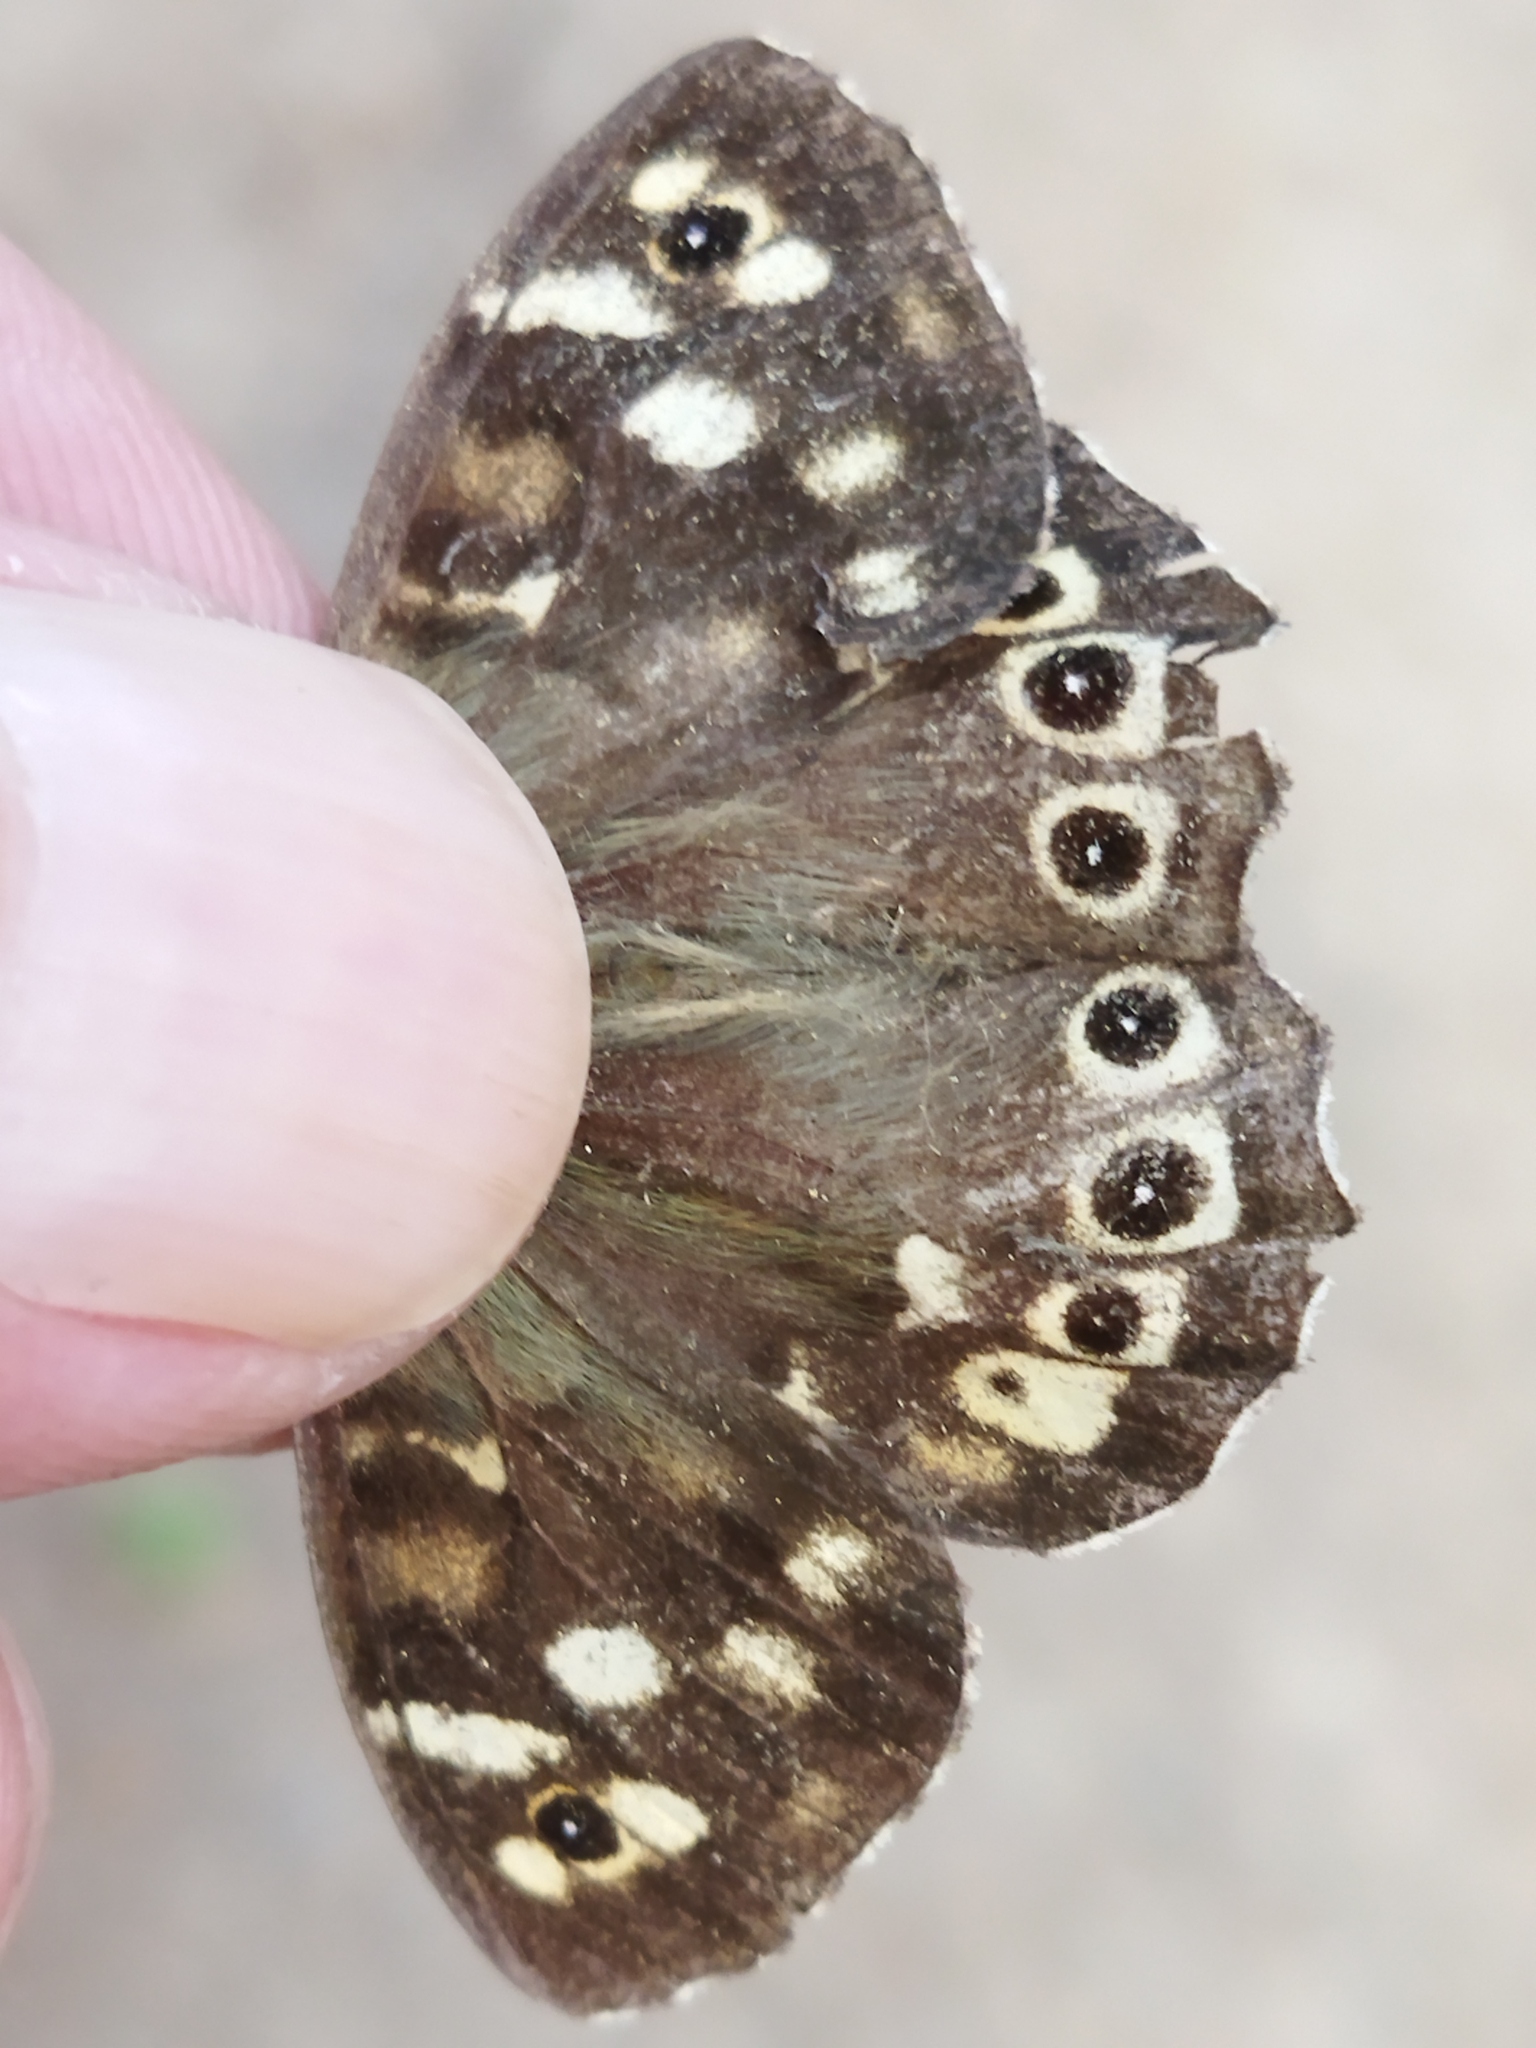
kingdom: Animalia
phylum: Arthropoda
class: Insecta
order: Lepidoptera
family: Nymphalidae
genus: Pararge
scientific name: Pararge aegeria
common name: Speckled wood
